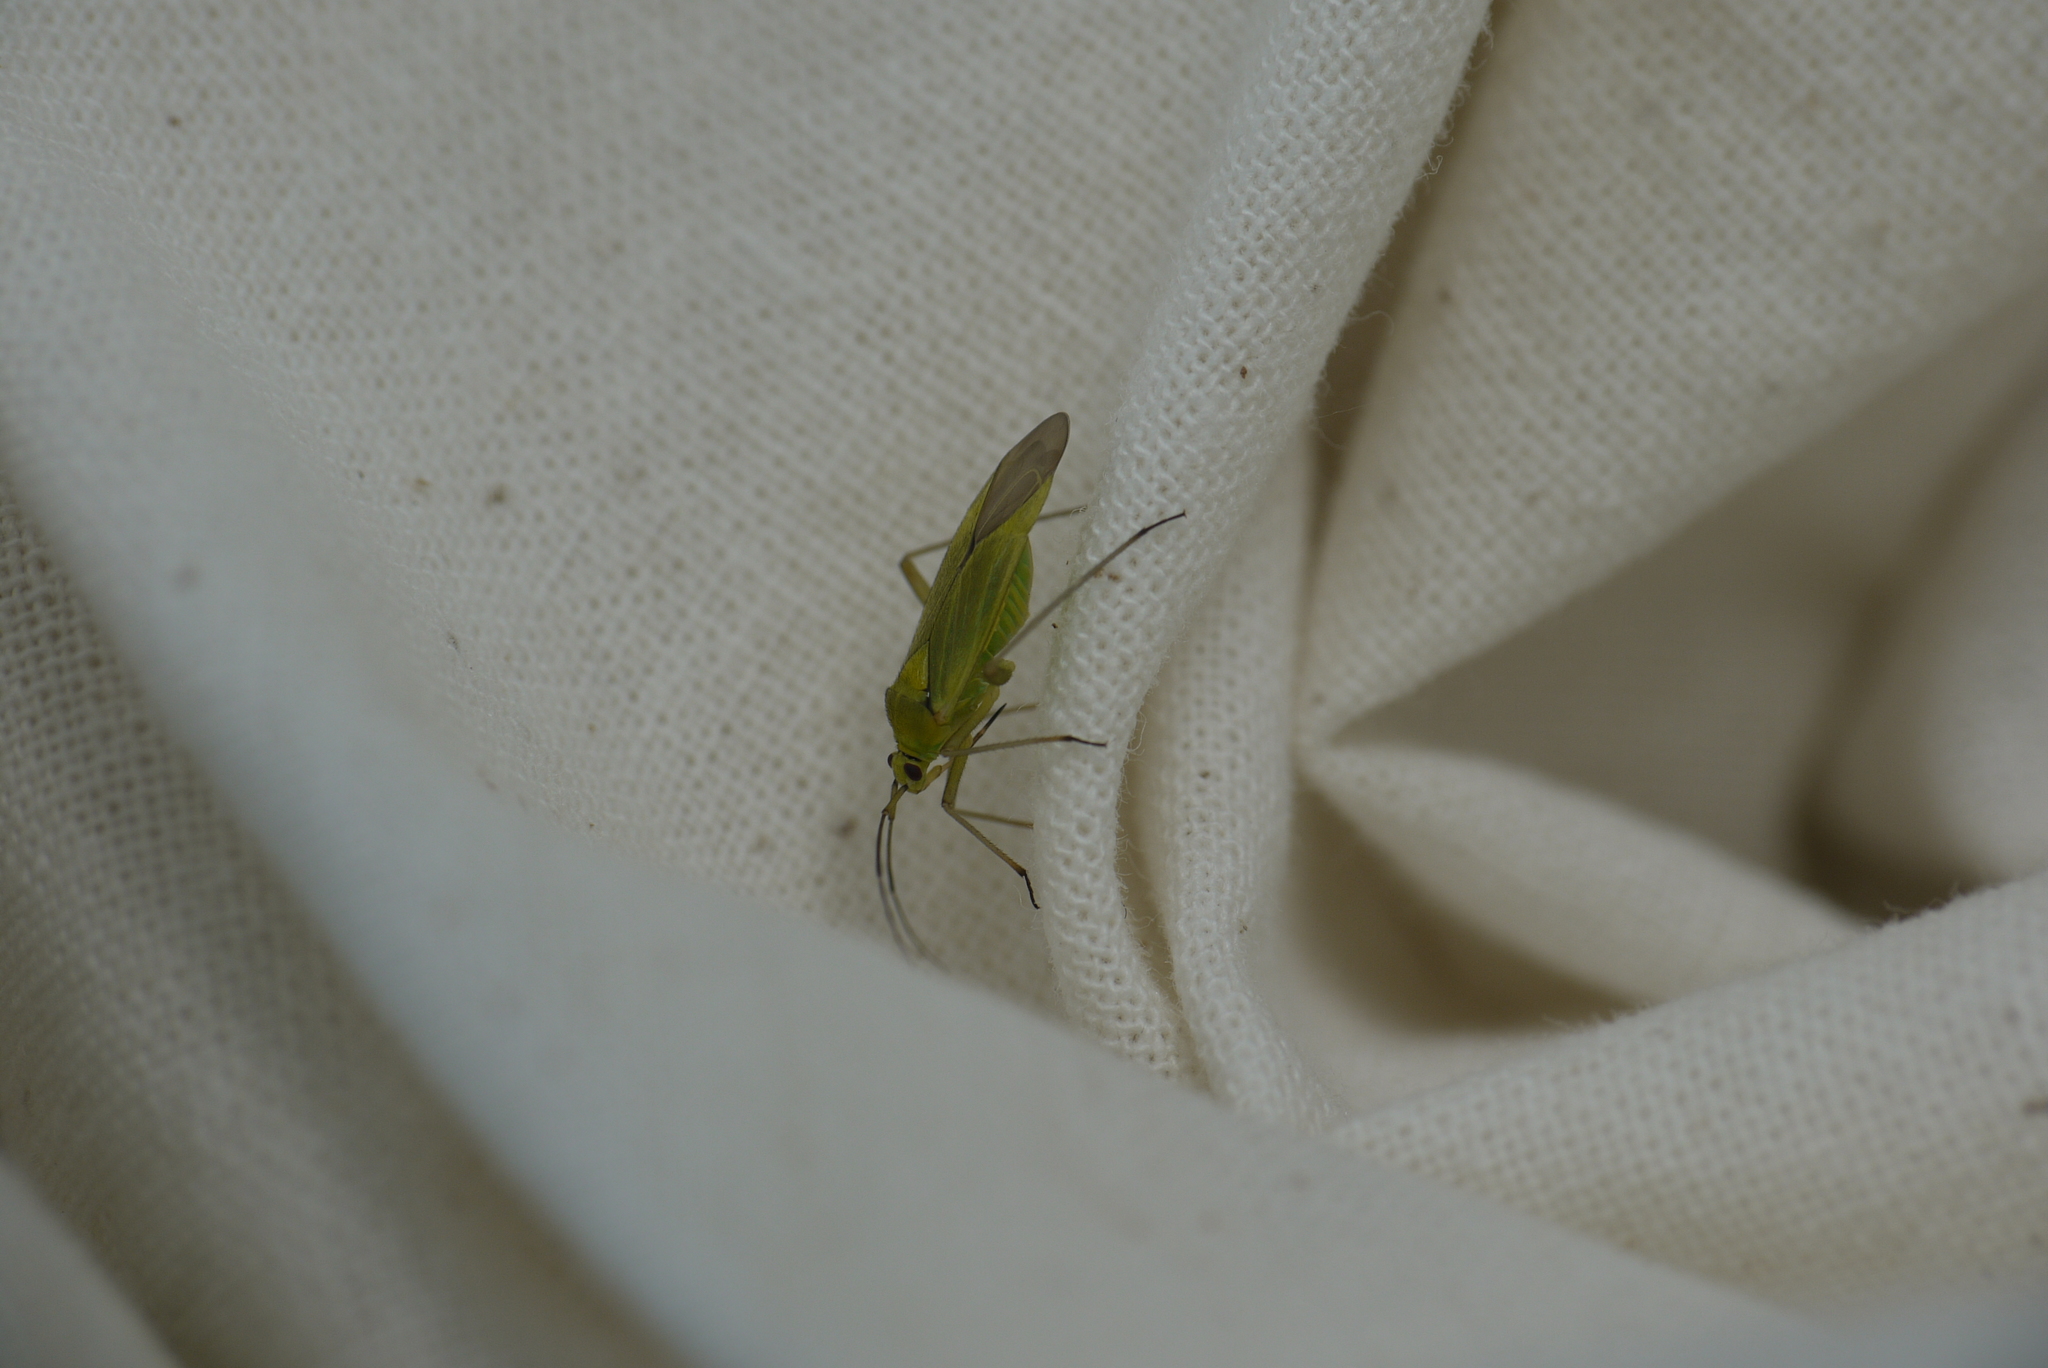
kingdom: Animalia
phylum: Arthropoda
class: Insecta
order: Hemiptera
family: Miridae
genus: Calocoris
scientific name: Calocoris alpestris
